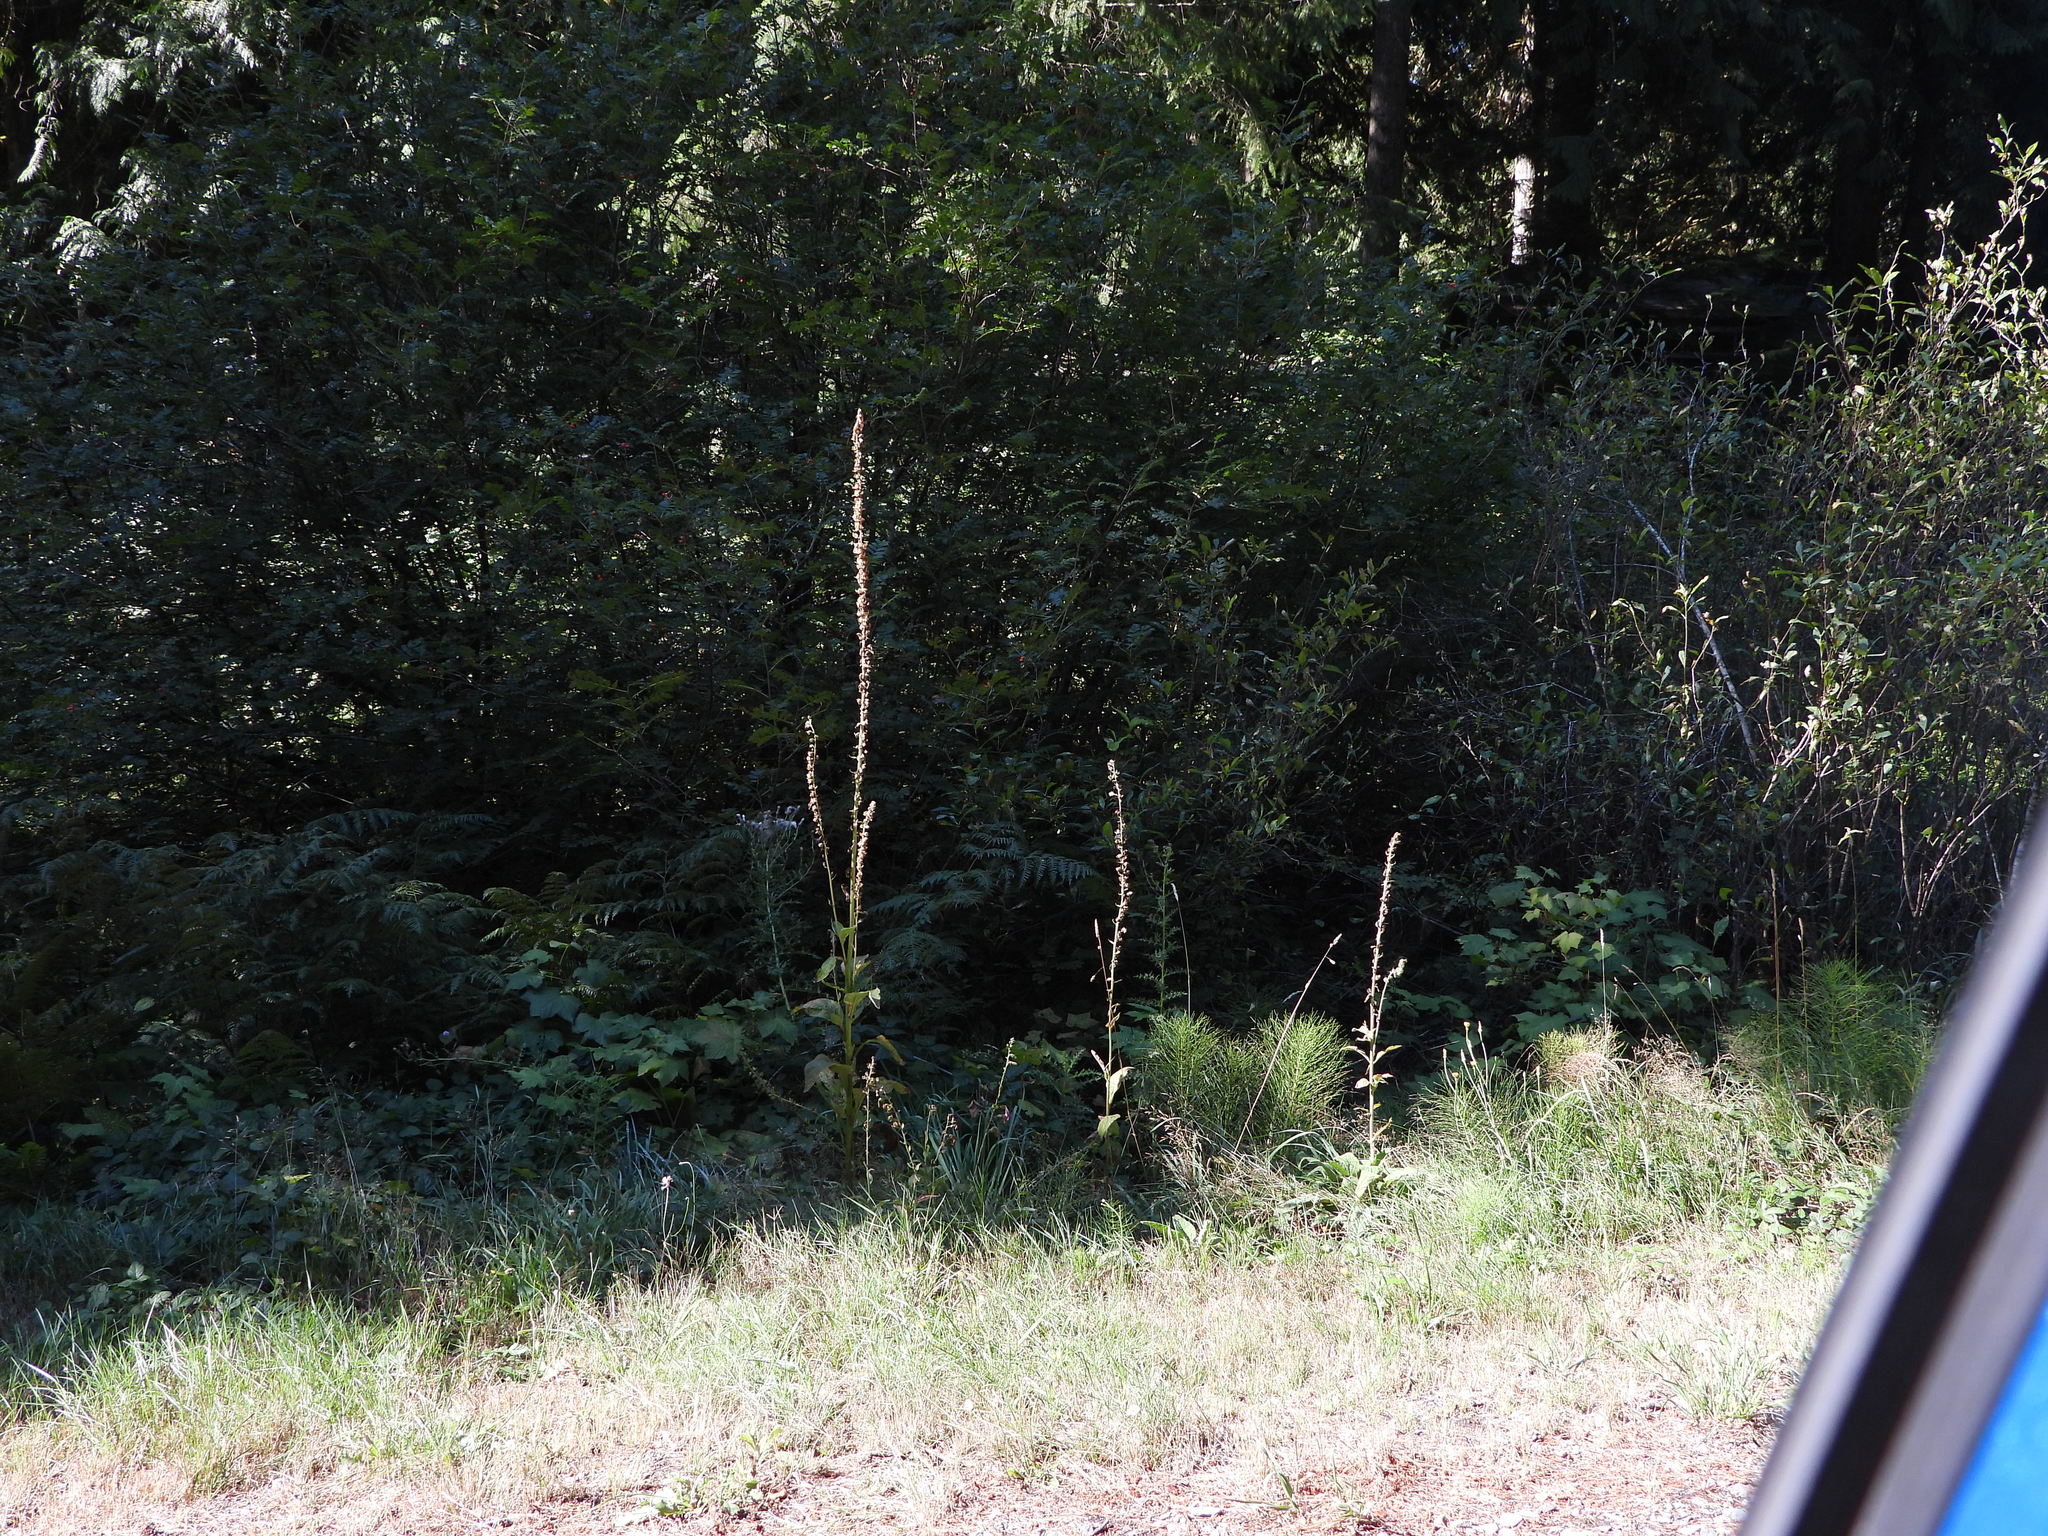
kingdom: Plantae
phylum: Tracheophyta
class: Magnoliopsida
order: Lamiales
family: Plantaginaceae
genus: Digitalis
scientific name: Digitalis purpurea
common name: Foxglove
